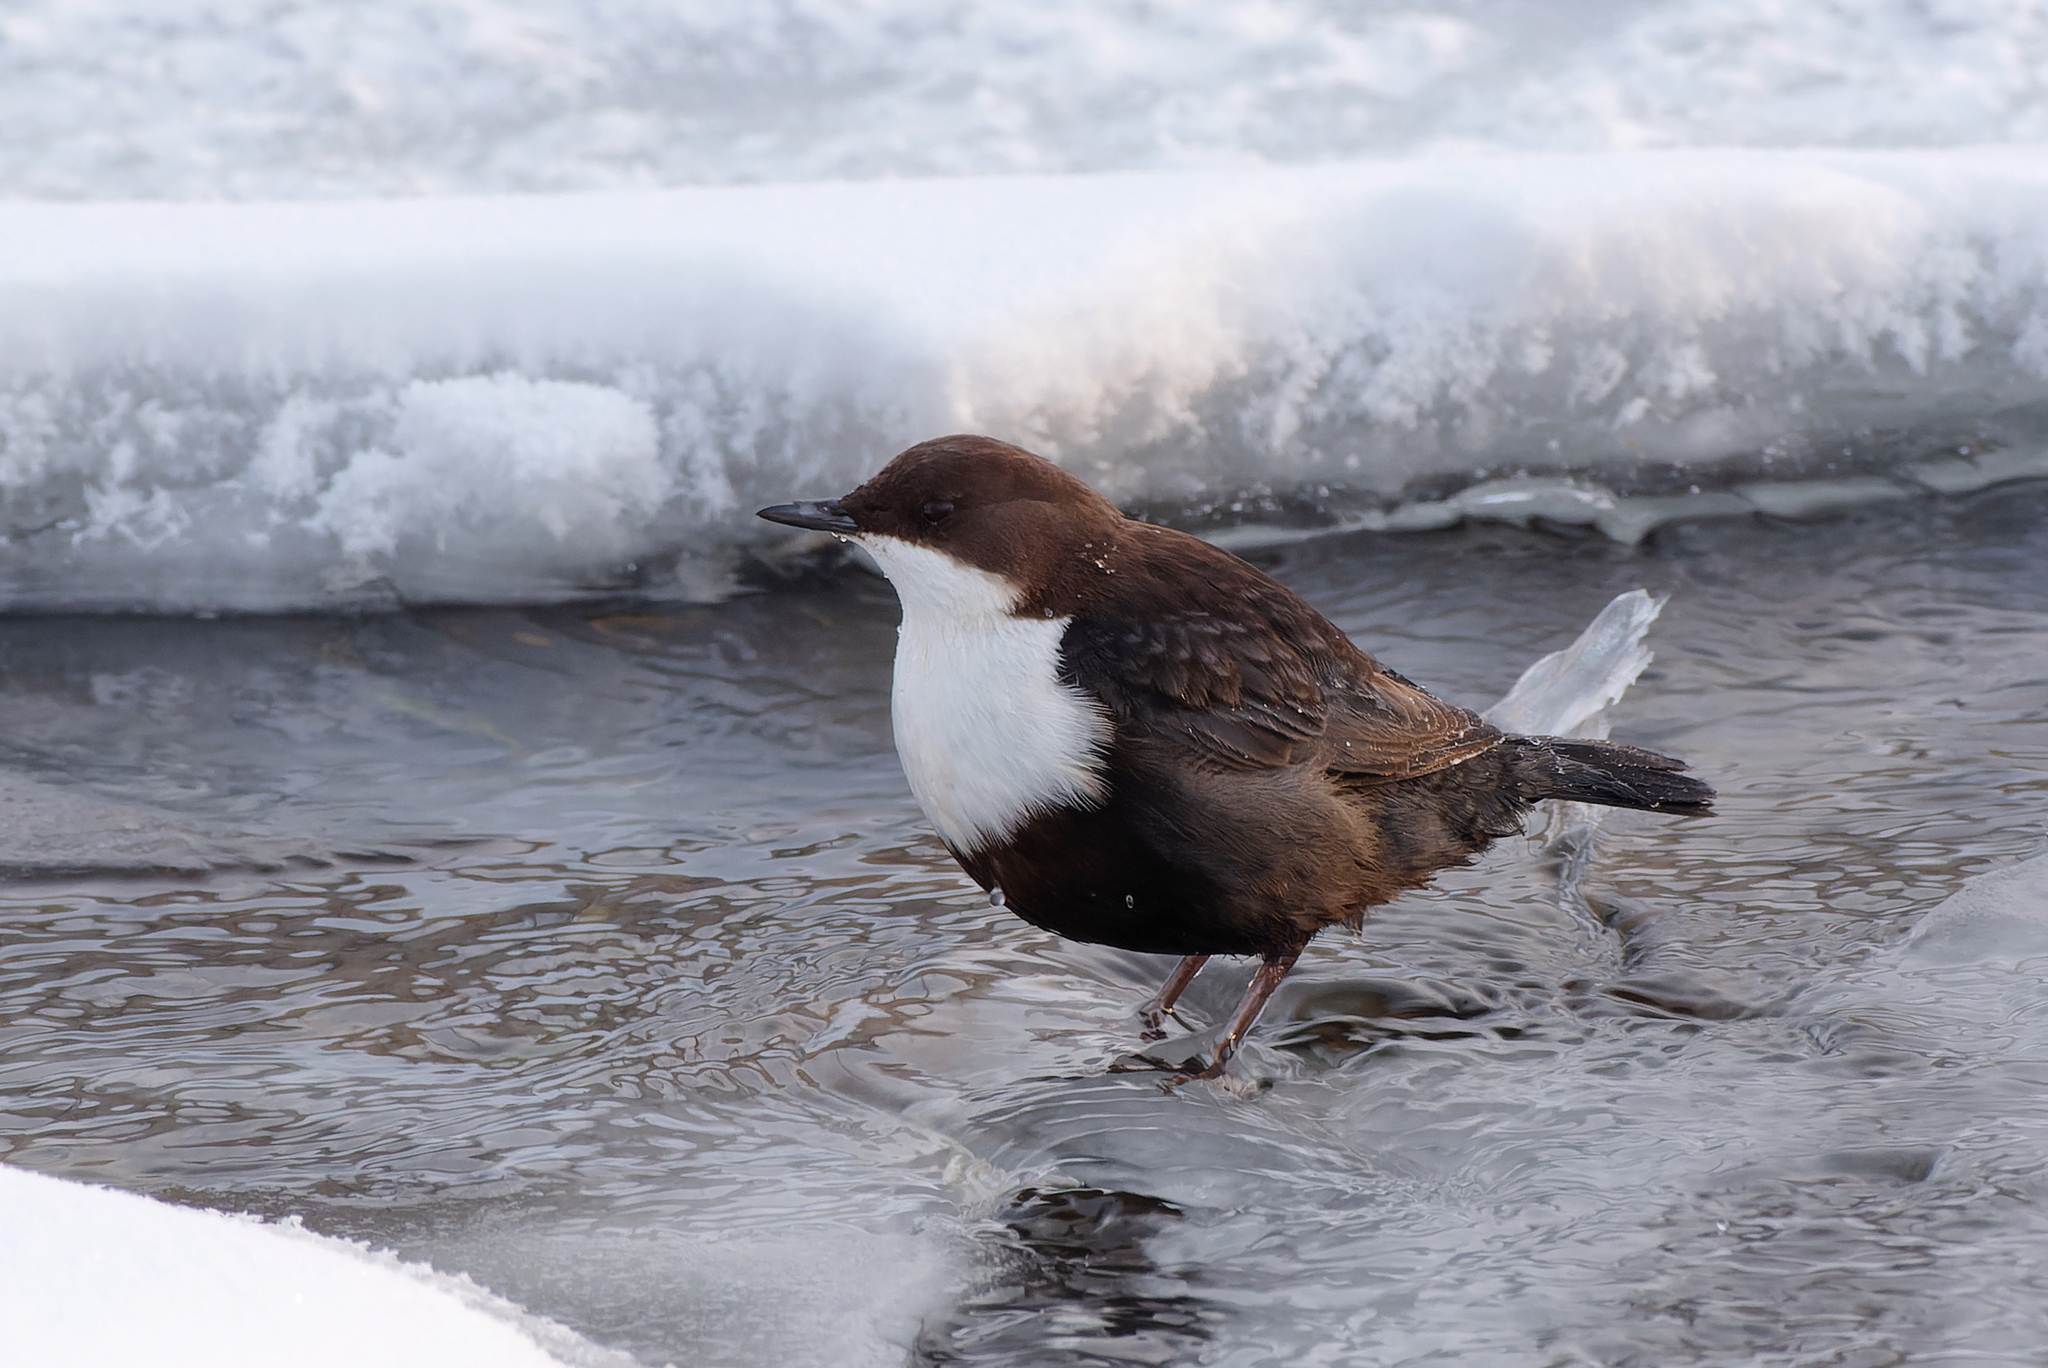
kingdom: Animalia
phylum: Chordata
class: Aves
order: Passeriformes
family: Cinclidae
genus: Cinclus
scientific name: Cinclus cinclus
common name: White-throated dipper
